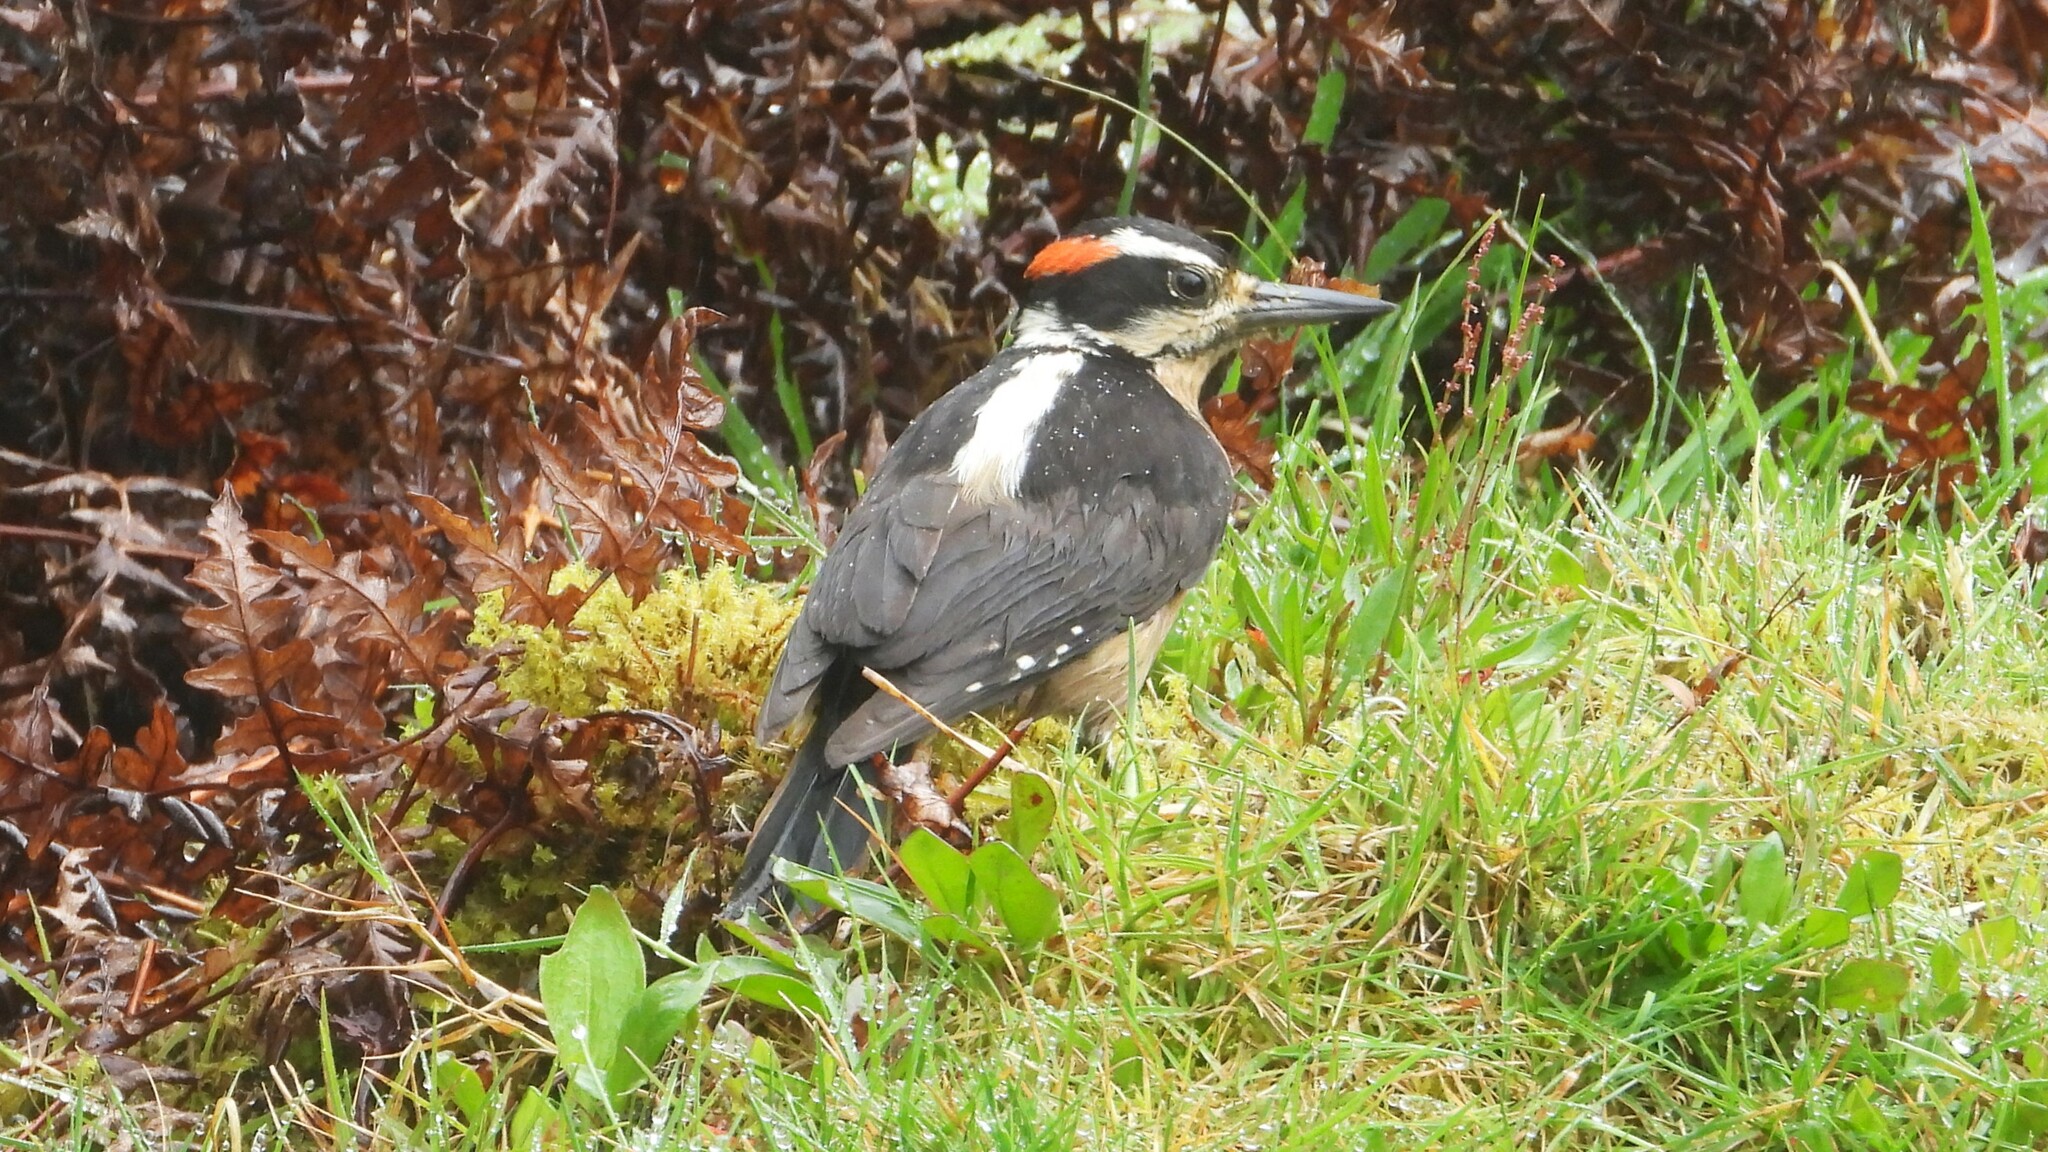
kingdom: Animalia
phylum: Chordata
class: Aves
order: Piciformes
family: Picidae
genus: Leuconotopicus
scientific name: Leuconotopicus villosus
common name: Hairy woodpecker
